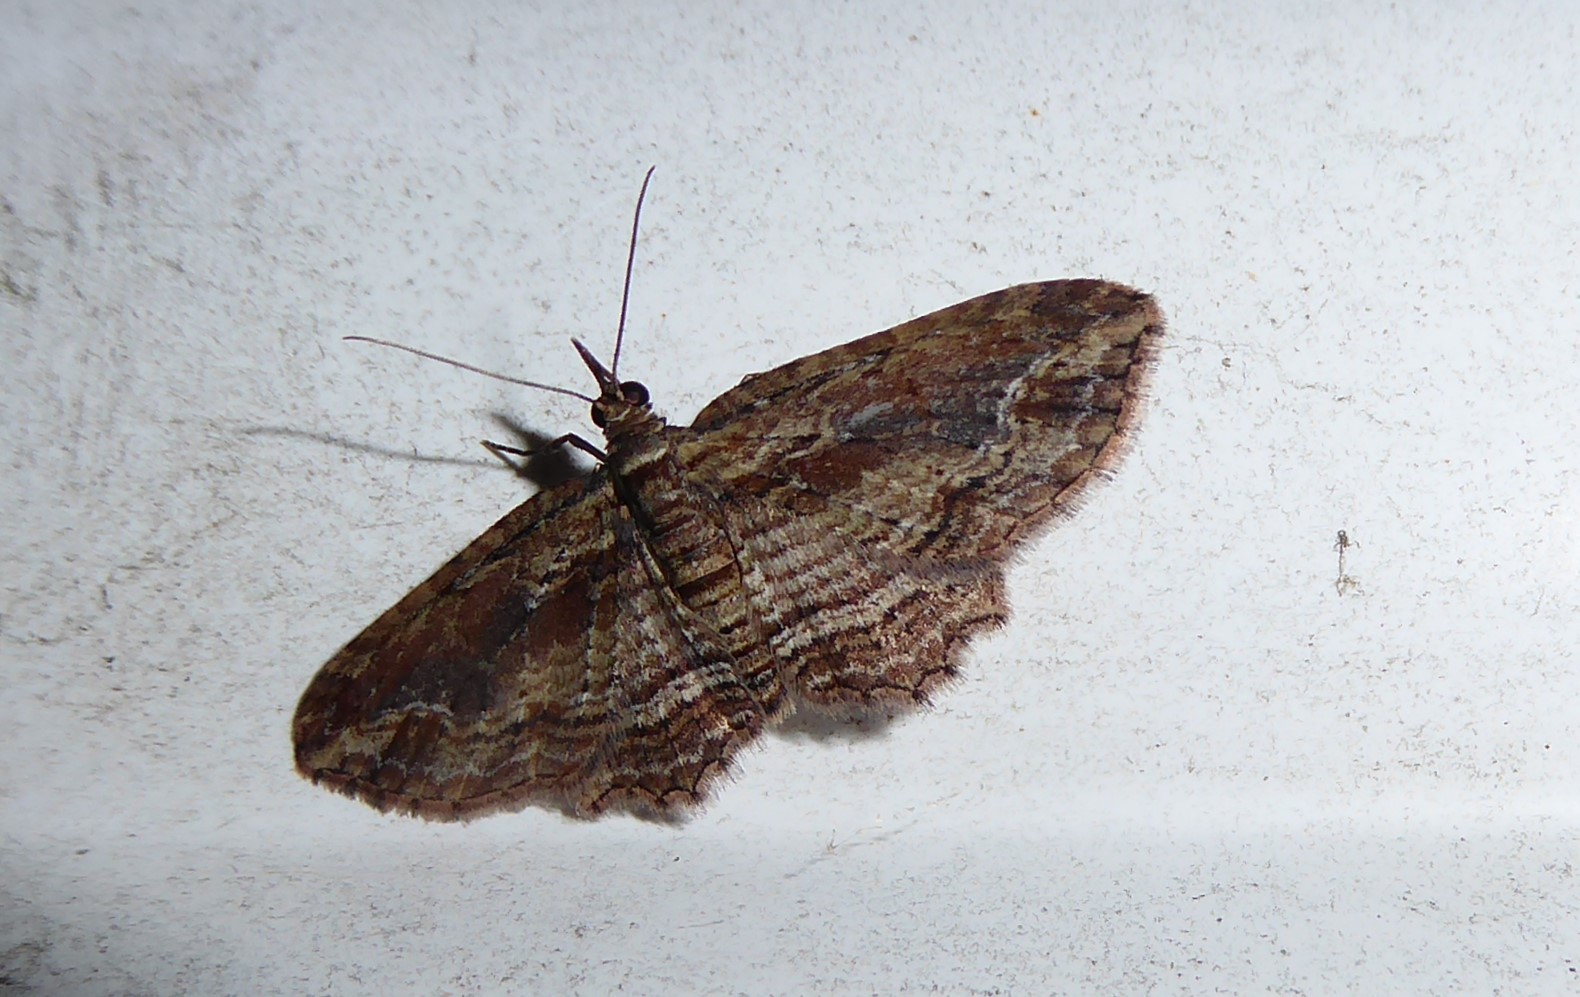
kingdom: Animalia
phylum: Arthropoda
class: Insecta
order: Lepidoptera
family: Geometridae
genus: Chloroclystis
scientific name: Chloroclystis filata
